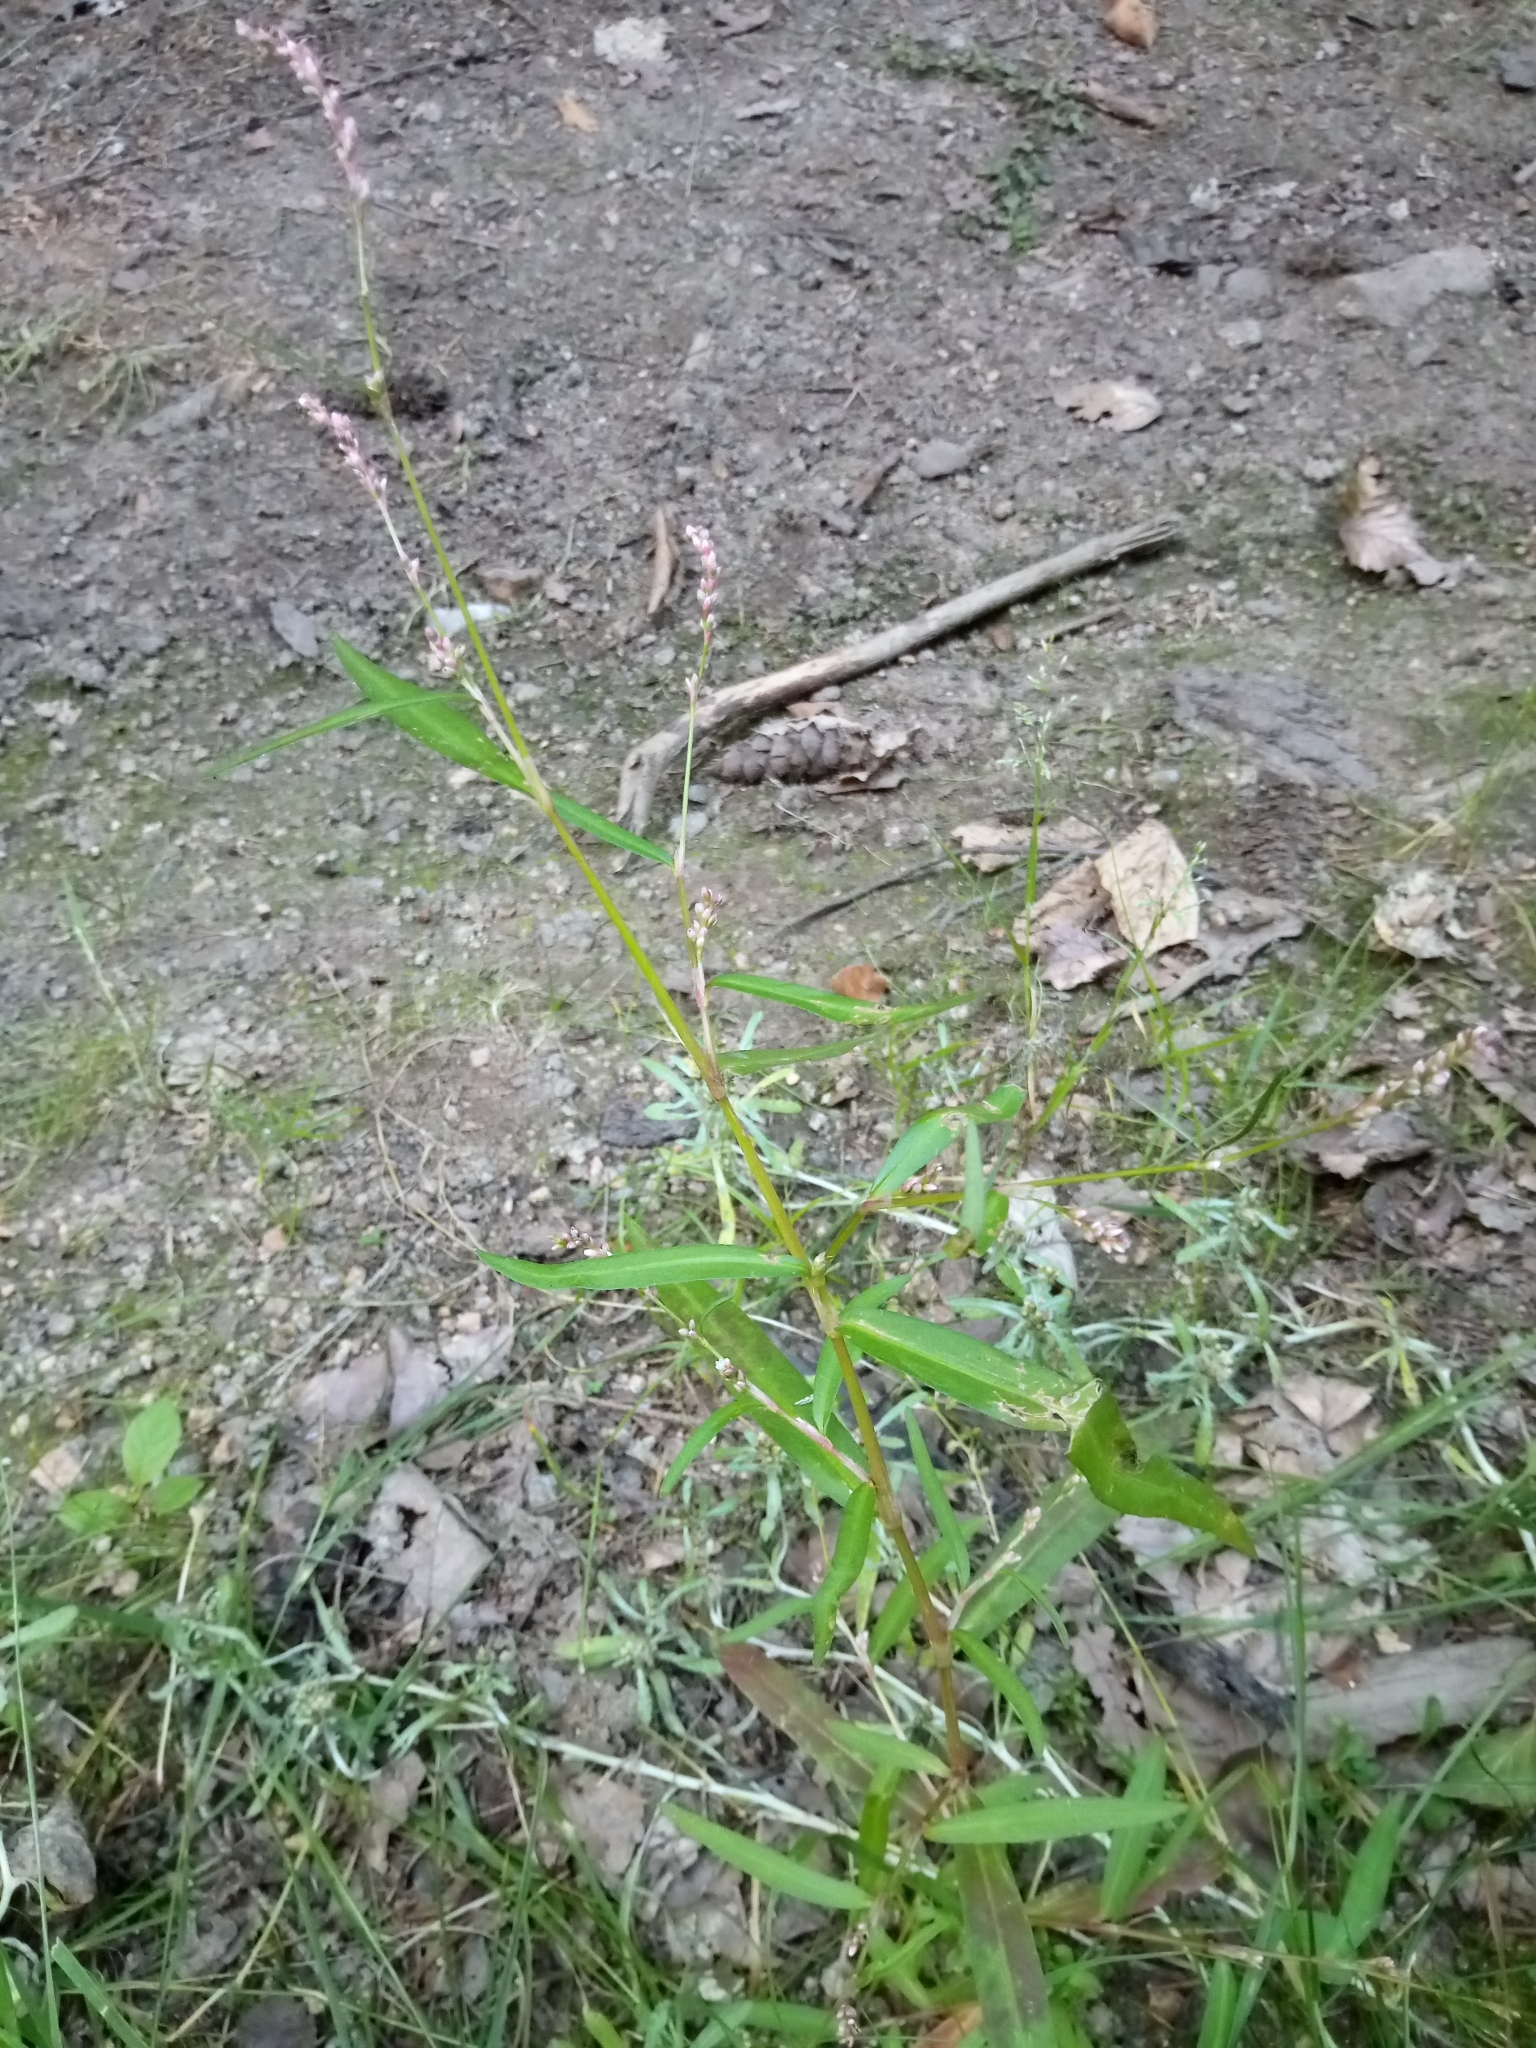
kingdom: Plantae
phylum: Tracheophyta
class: Magnoliopsida
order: Caryophyllales
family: Polygonaceae
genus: Persicaria
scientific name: Persicaria minor
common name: Small water-pepper
